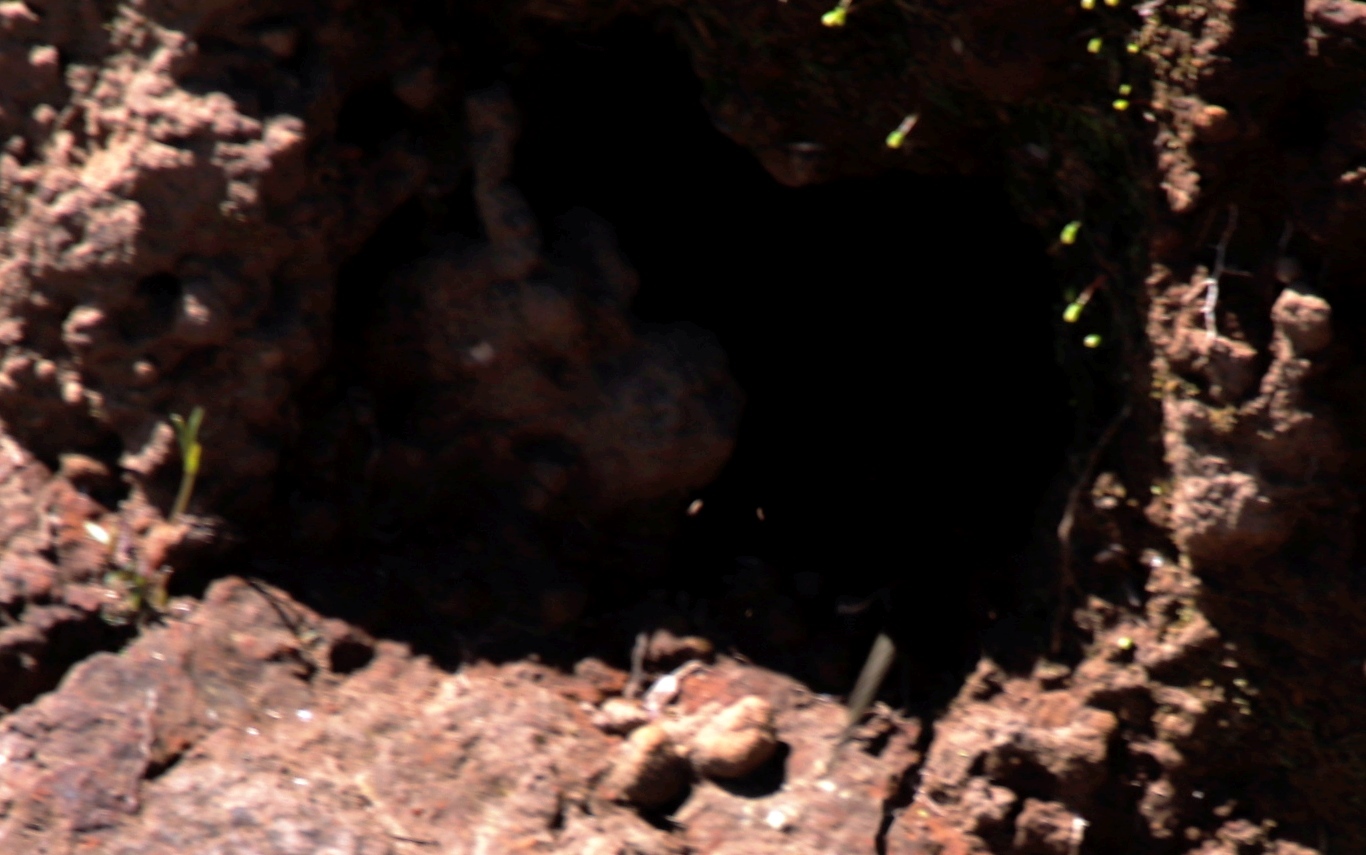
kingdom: Animalia
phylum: Chordata
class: Squamata
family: Scincidae
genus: Trachylepis
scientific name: Trachylepis punctatissima
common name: Montane speckled skink
